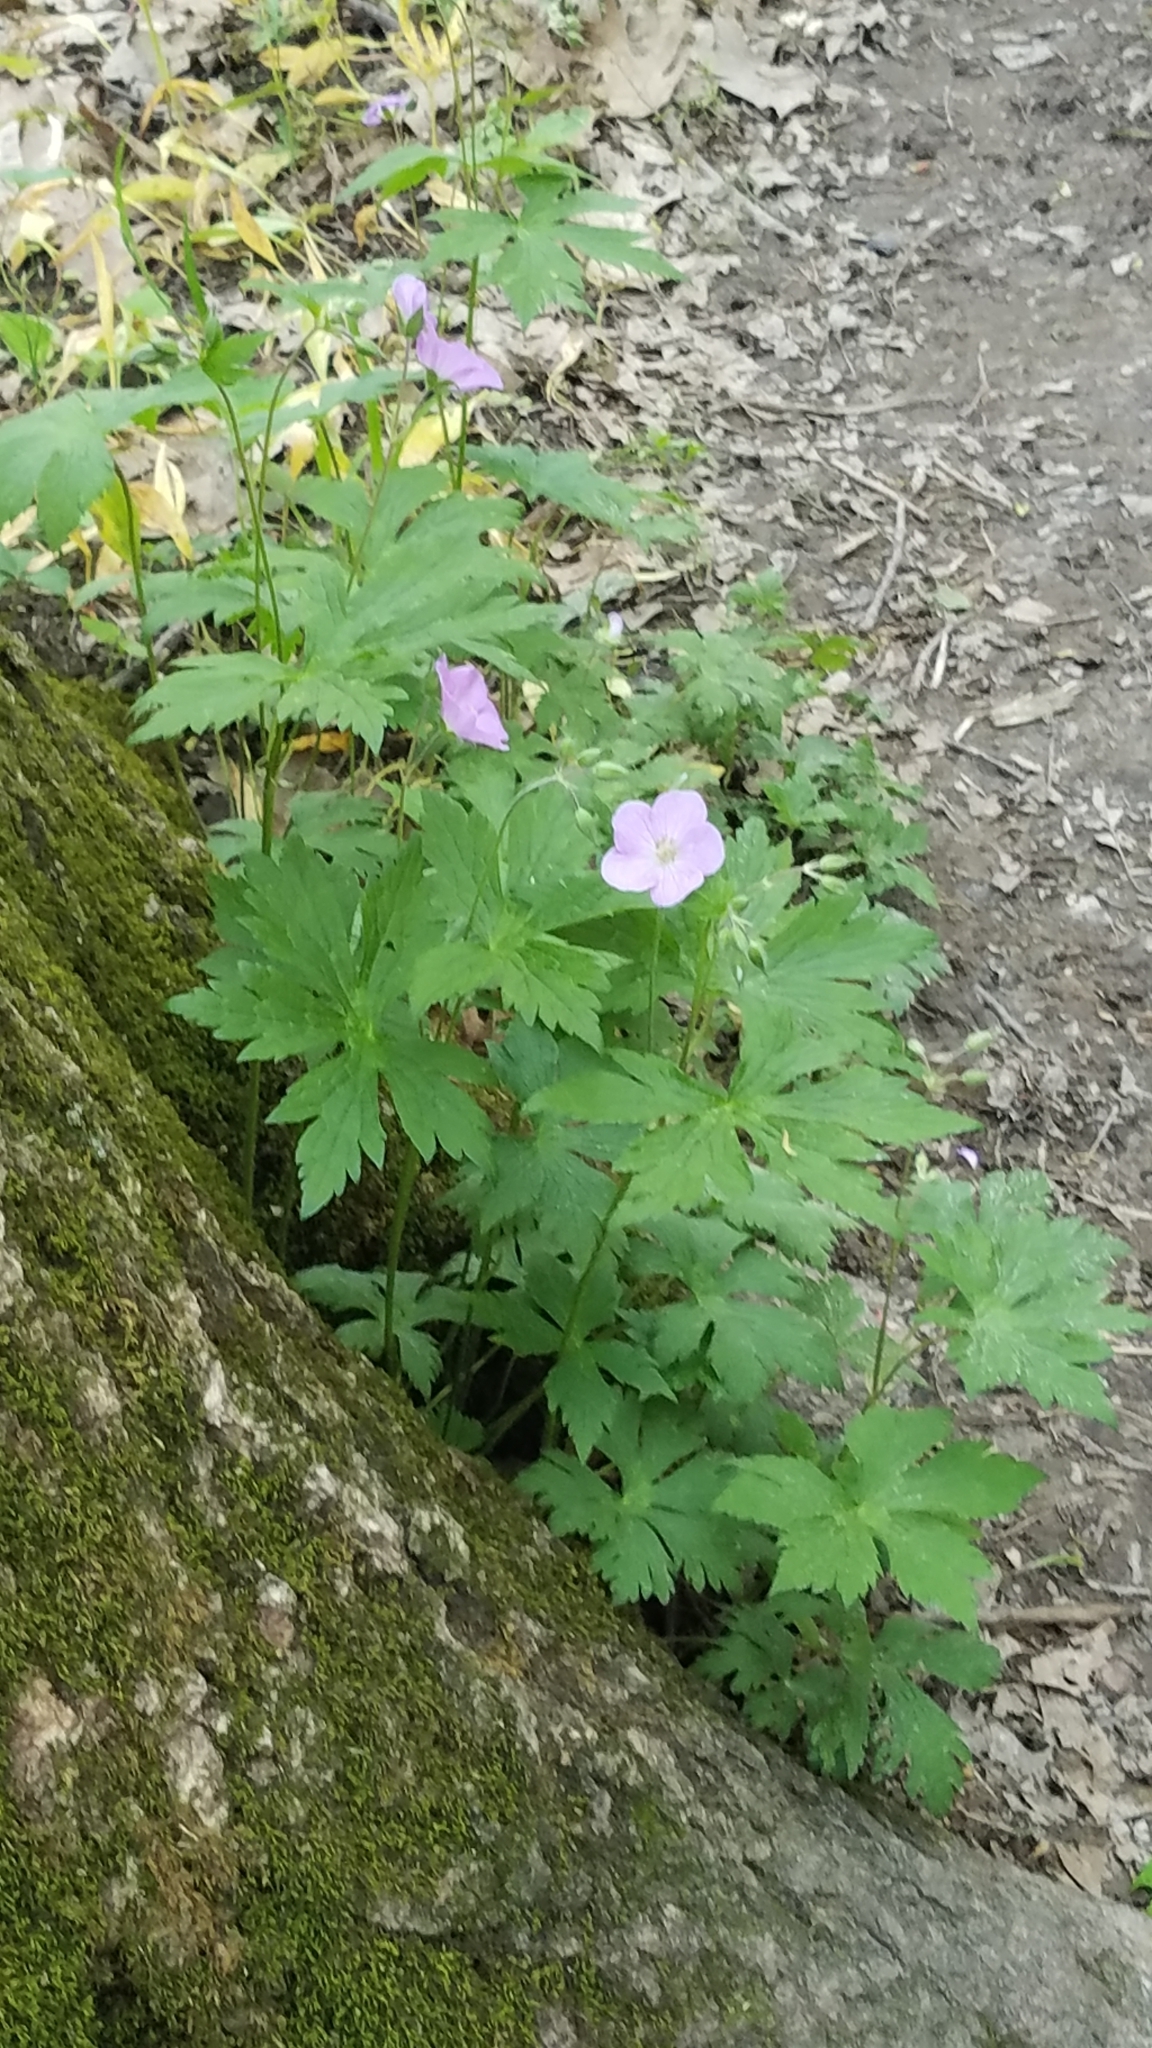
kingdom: Plantae
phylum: Tracheophyta
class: Magnoliopsida
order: Geraniales
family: Geraniaceae
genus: Geranium
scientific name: Geranium maculatum
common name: Spotted geranium
